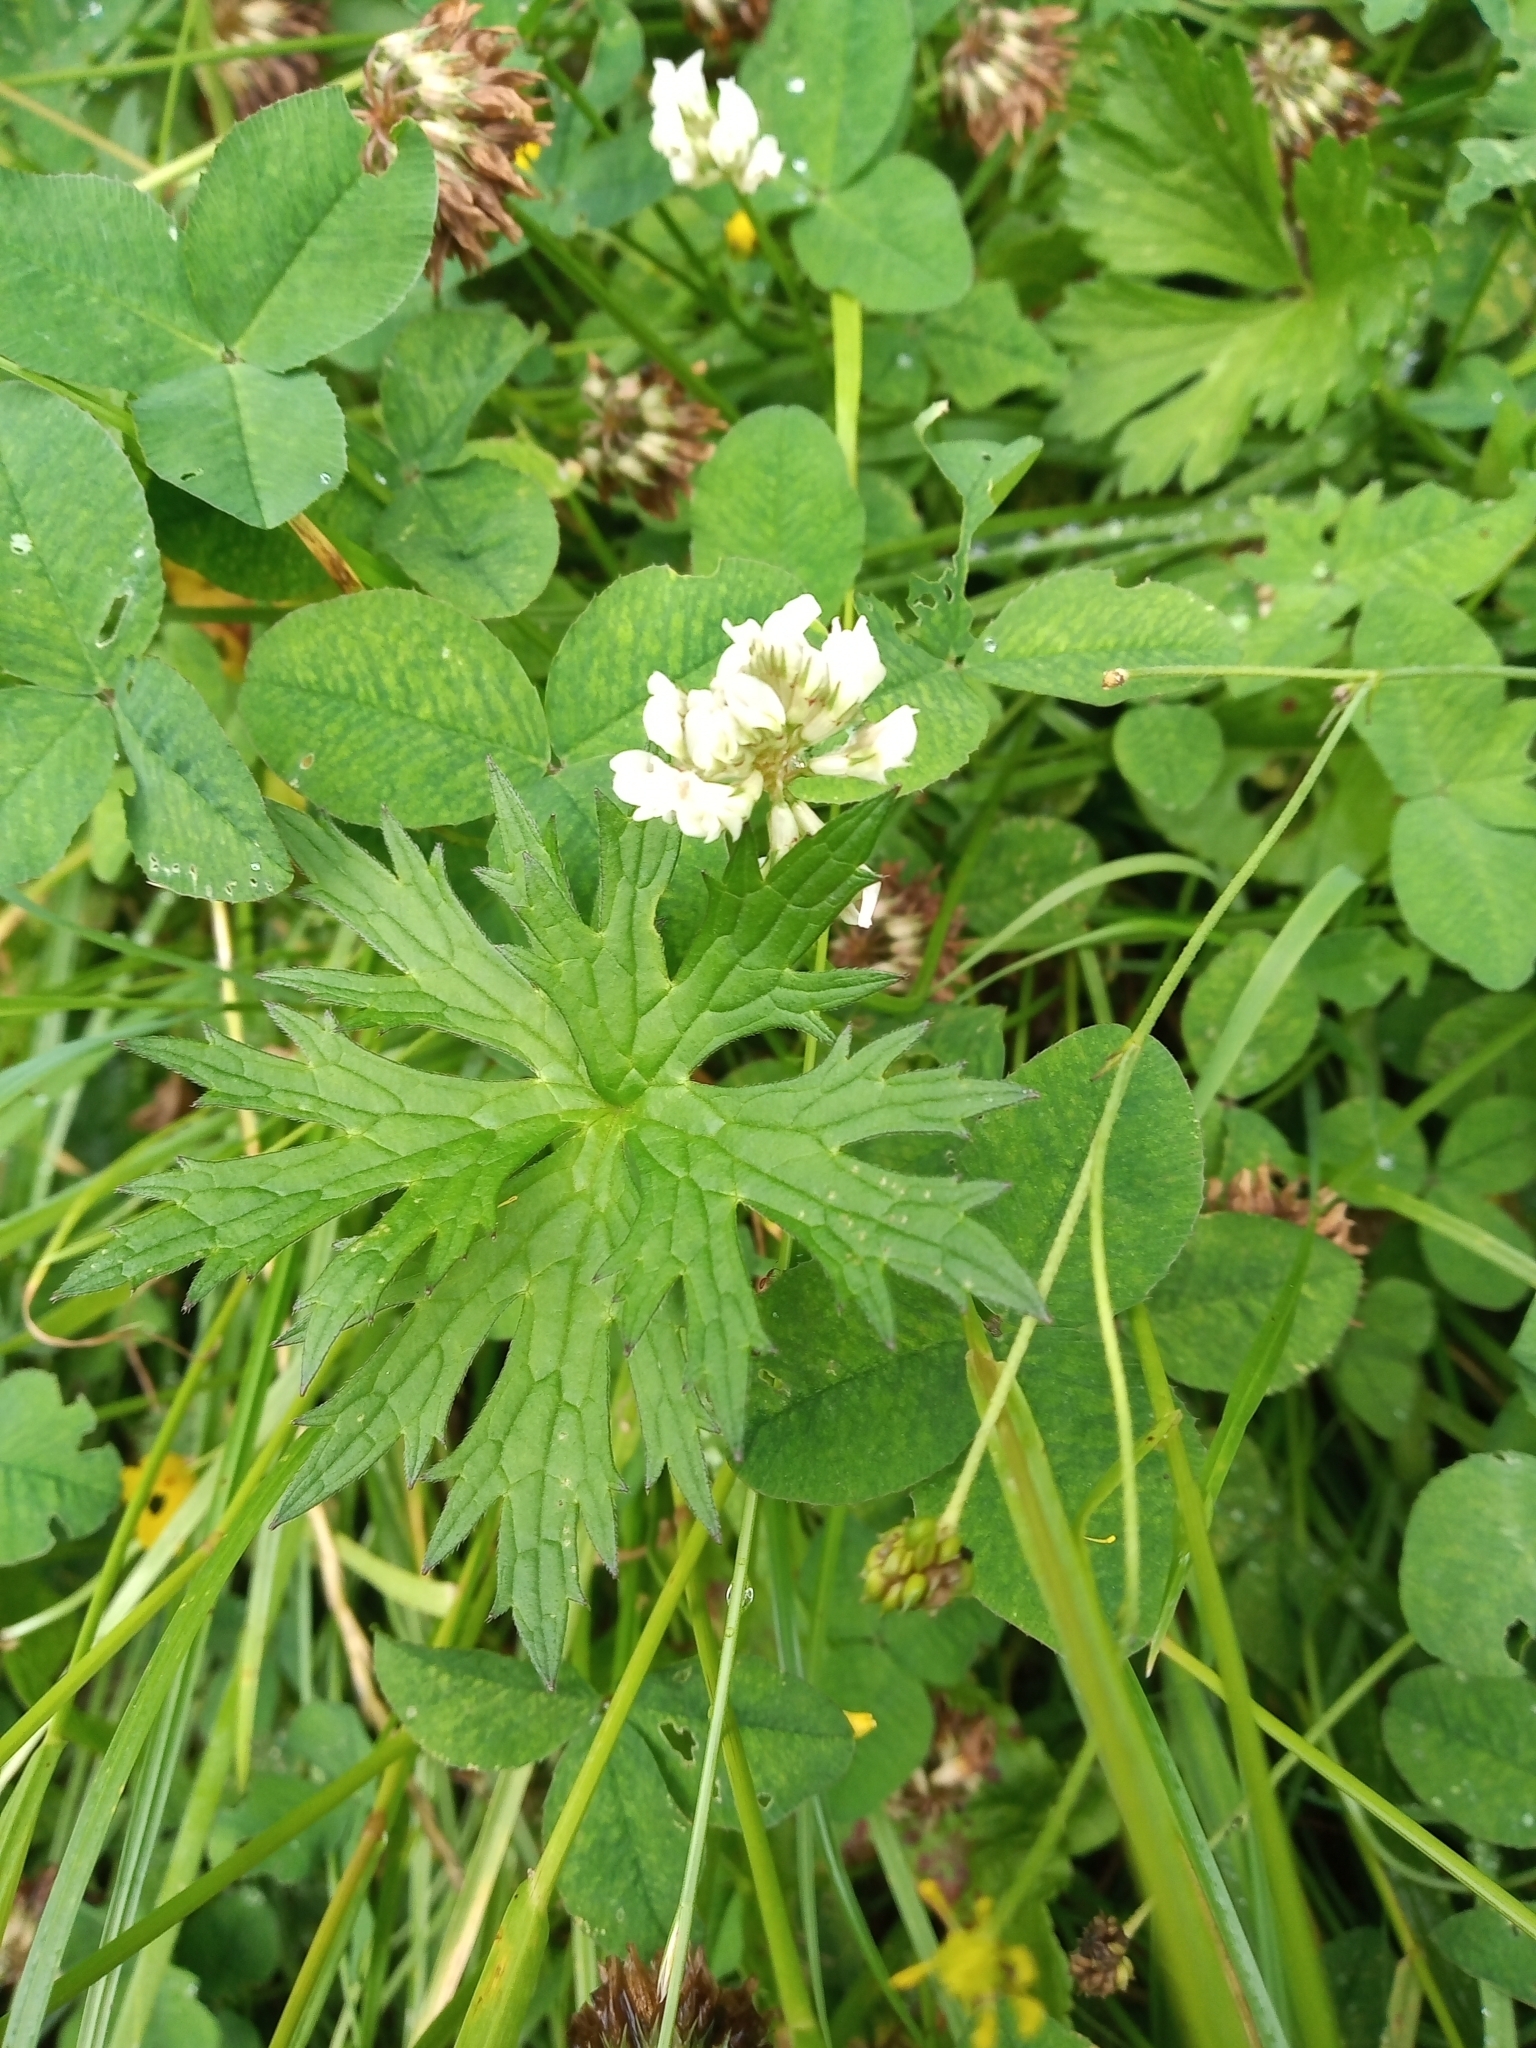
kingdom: Plantae
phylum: Tracheophyta
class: Magnoliopsida
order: Ranunculales
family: Ranunculaceae
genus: Ranunculus
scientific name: Ranunculus acris
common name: Meadow buttercup
